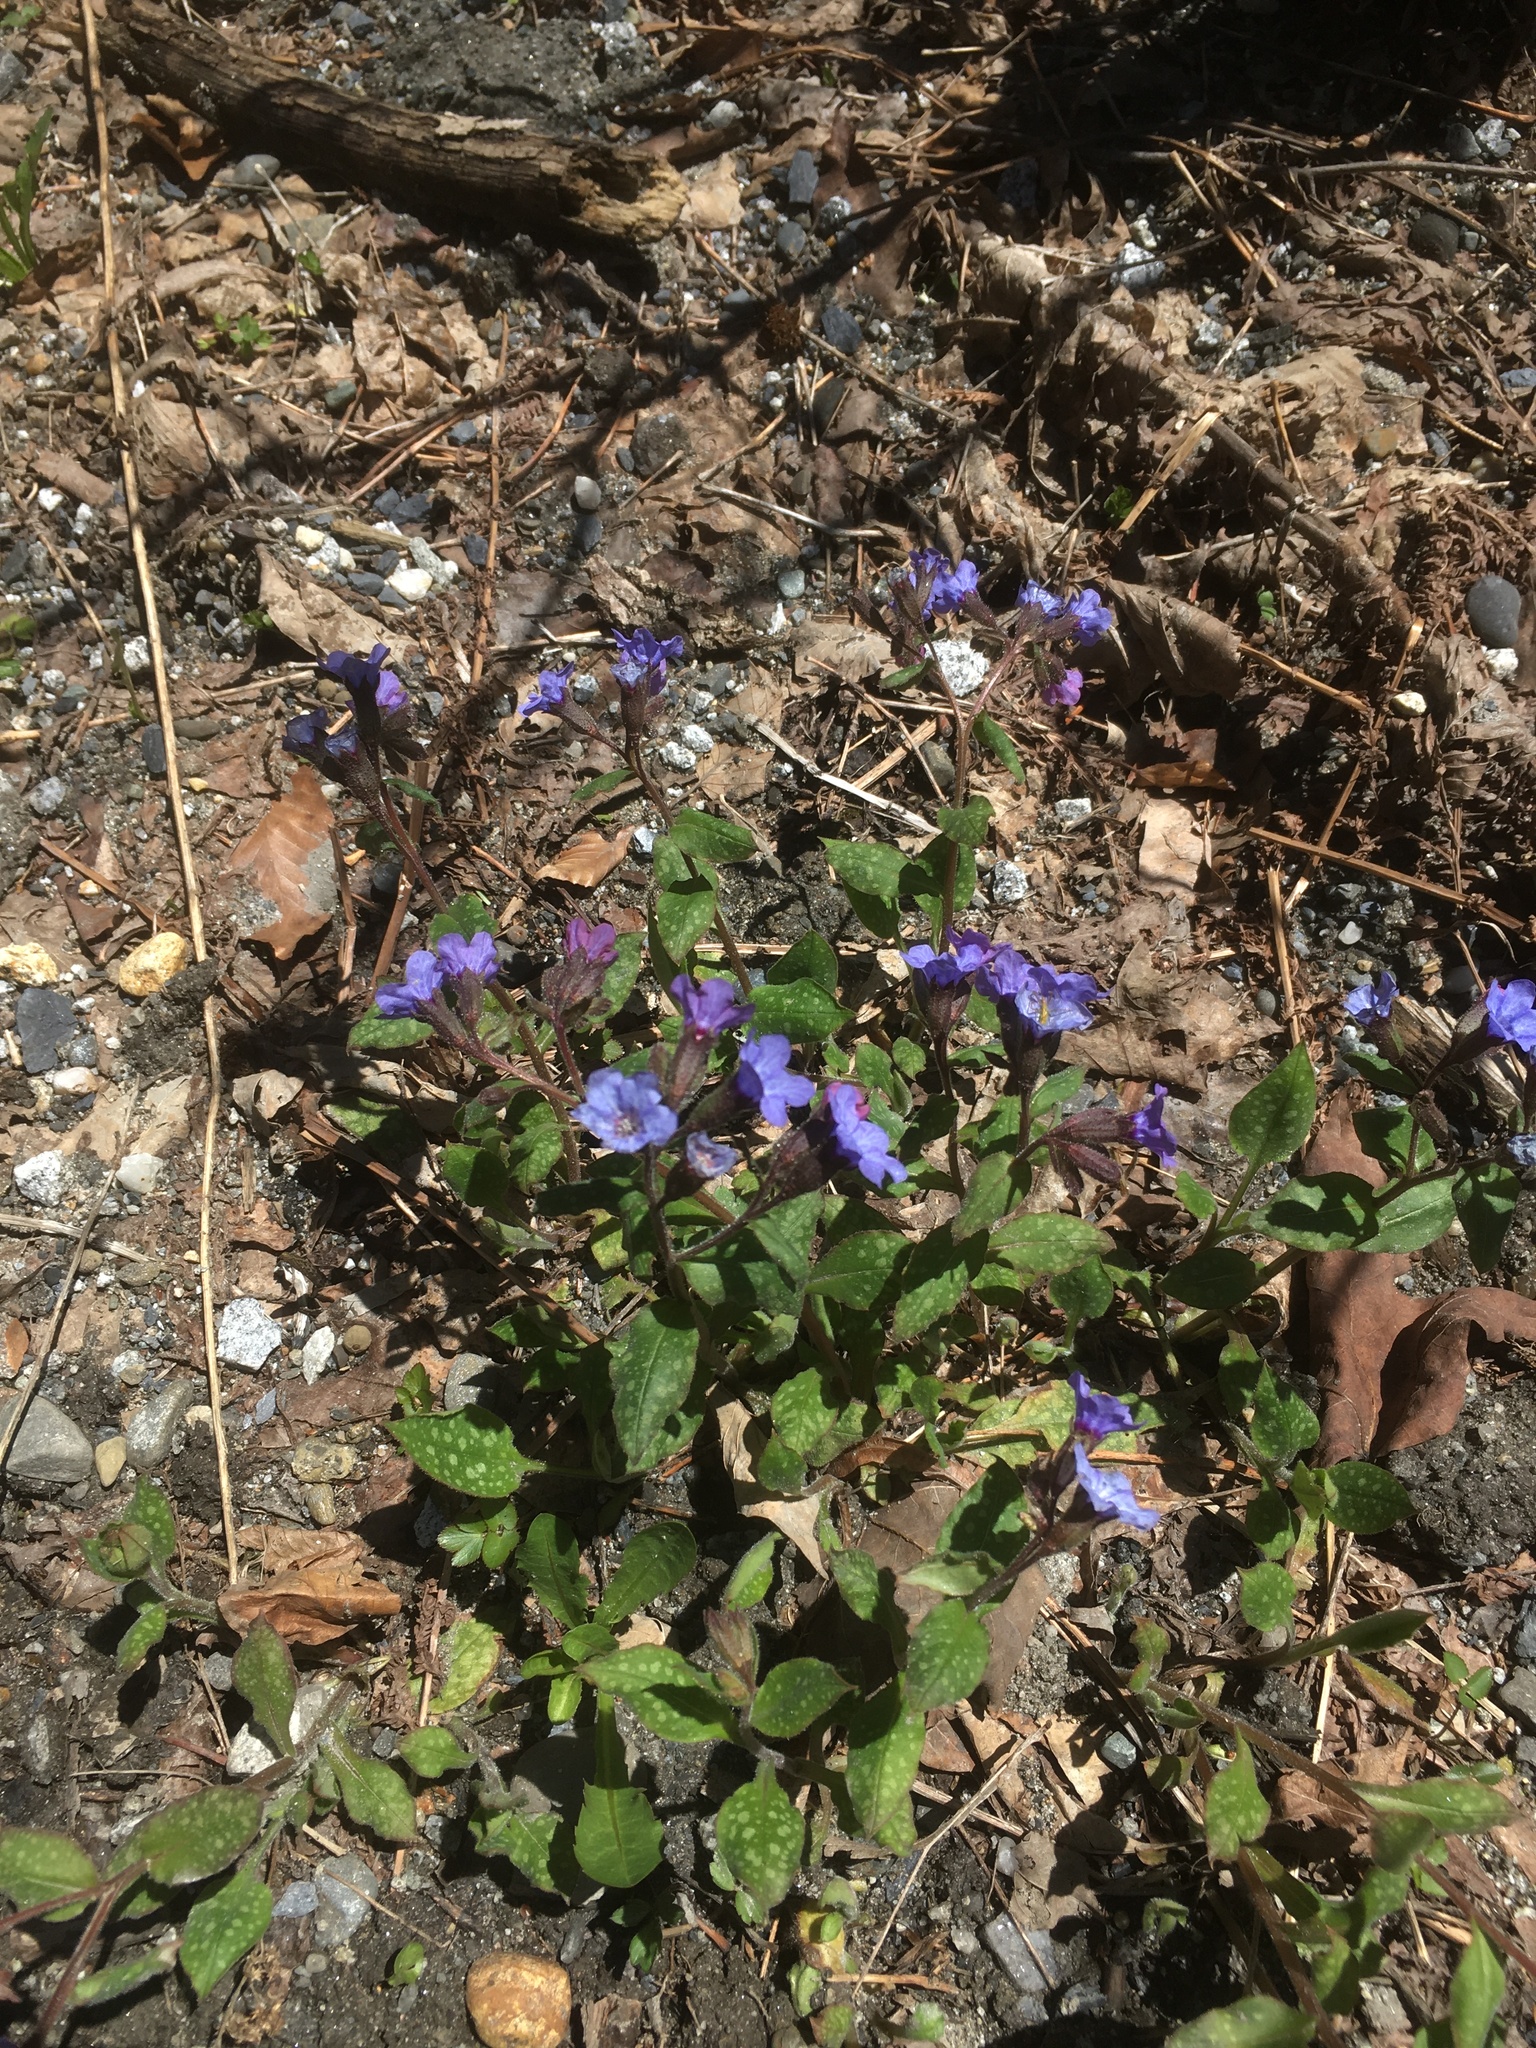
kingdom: Plantae
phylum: Tracheophyta
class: Magnoliopsida
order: Boraginales
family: Boraginaceae
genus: Pulmonaria
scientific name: Pulmonaria officinalis
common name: Lungwort
